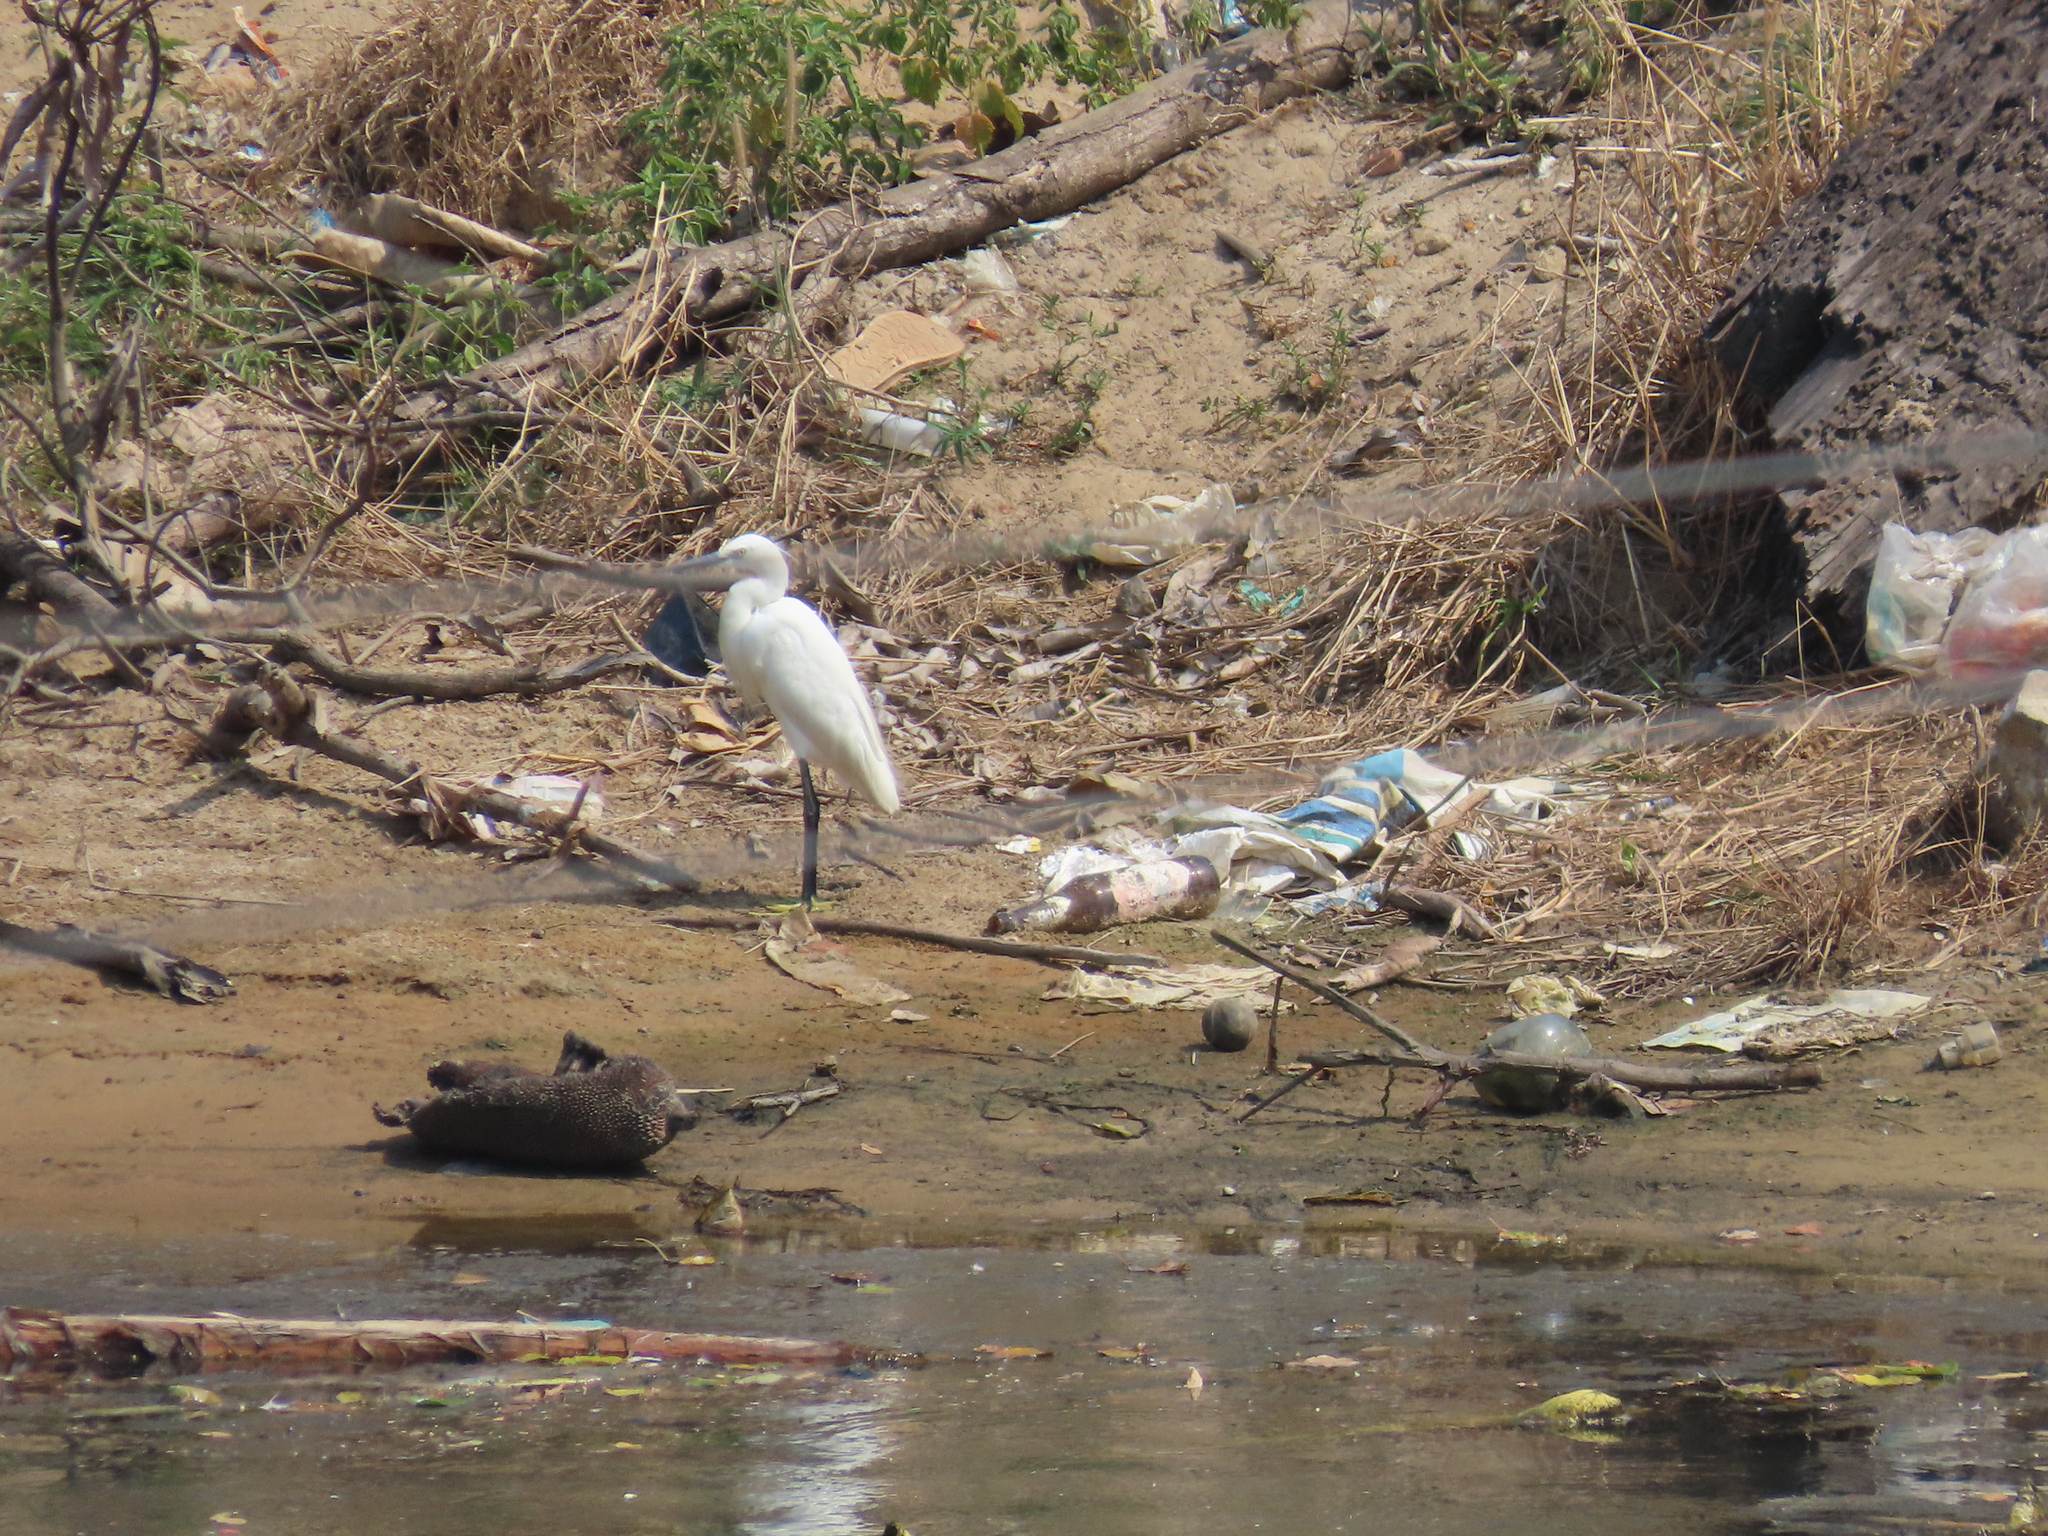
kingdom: Animalia
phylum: Chordata
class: Aves
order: Pelecaniformes
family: Ardeidae
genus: Egretta
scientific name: Egretta garzetta
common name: Little egret
